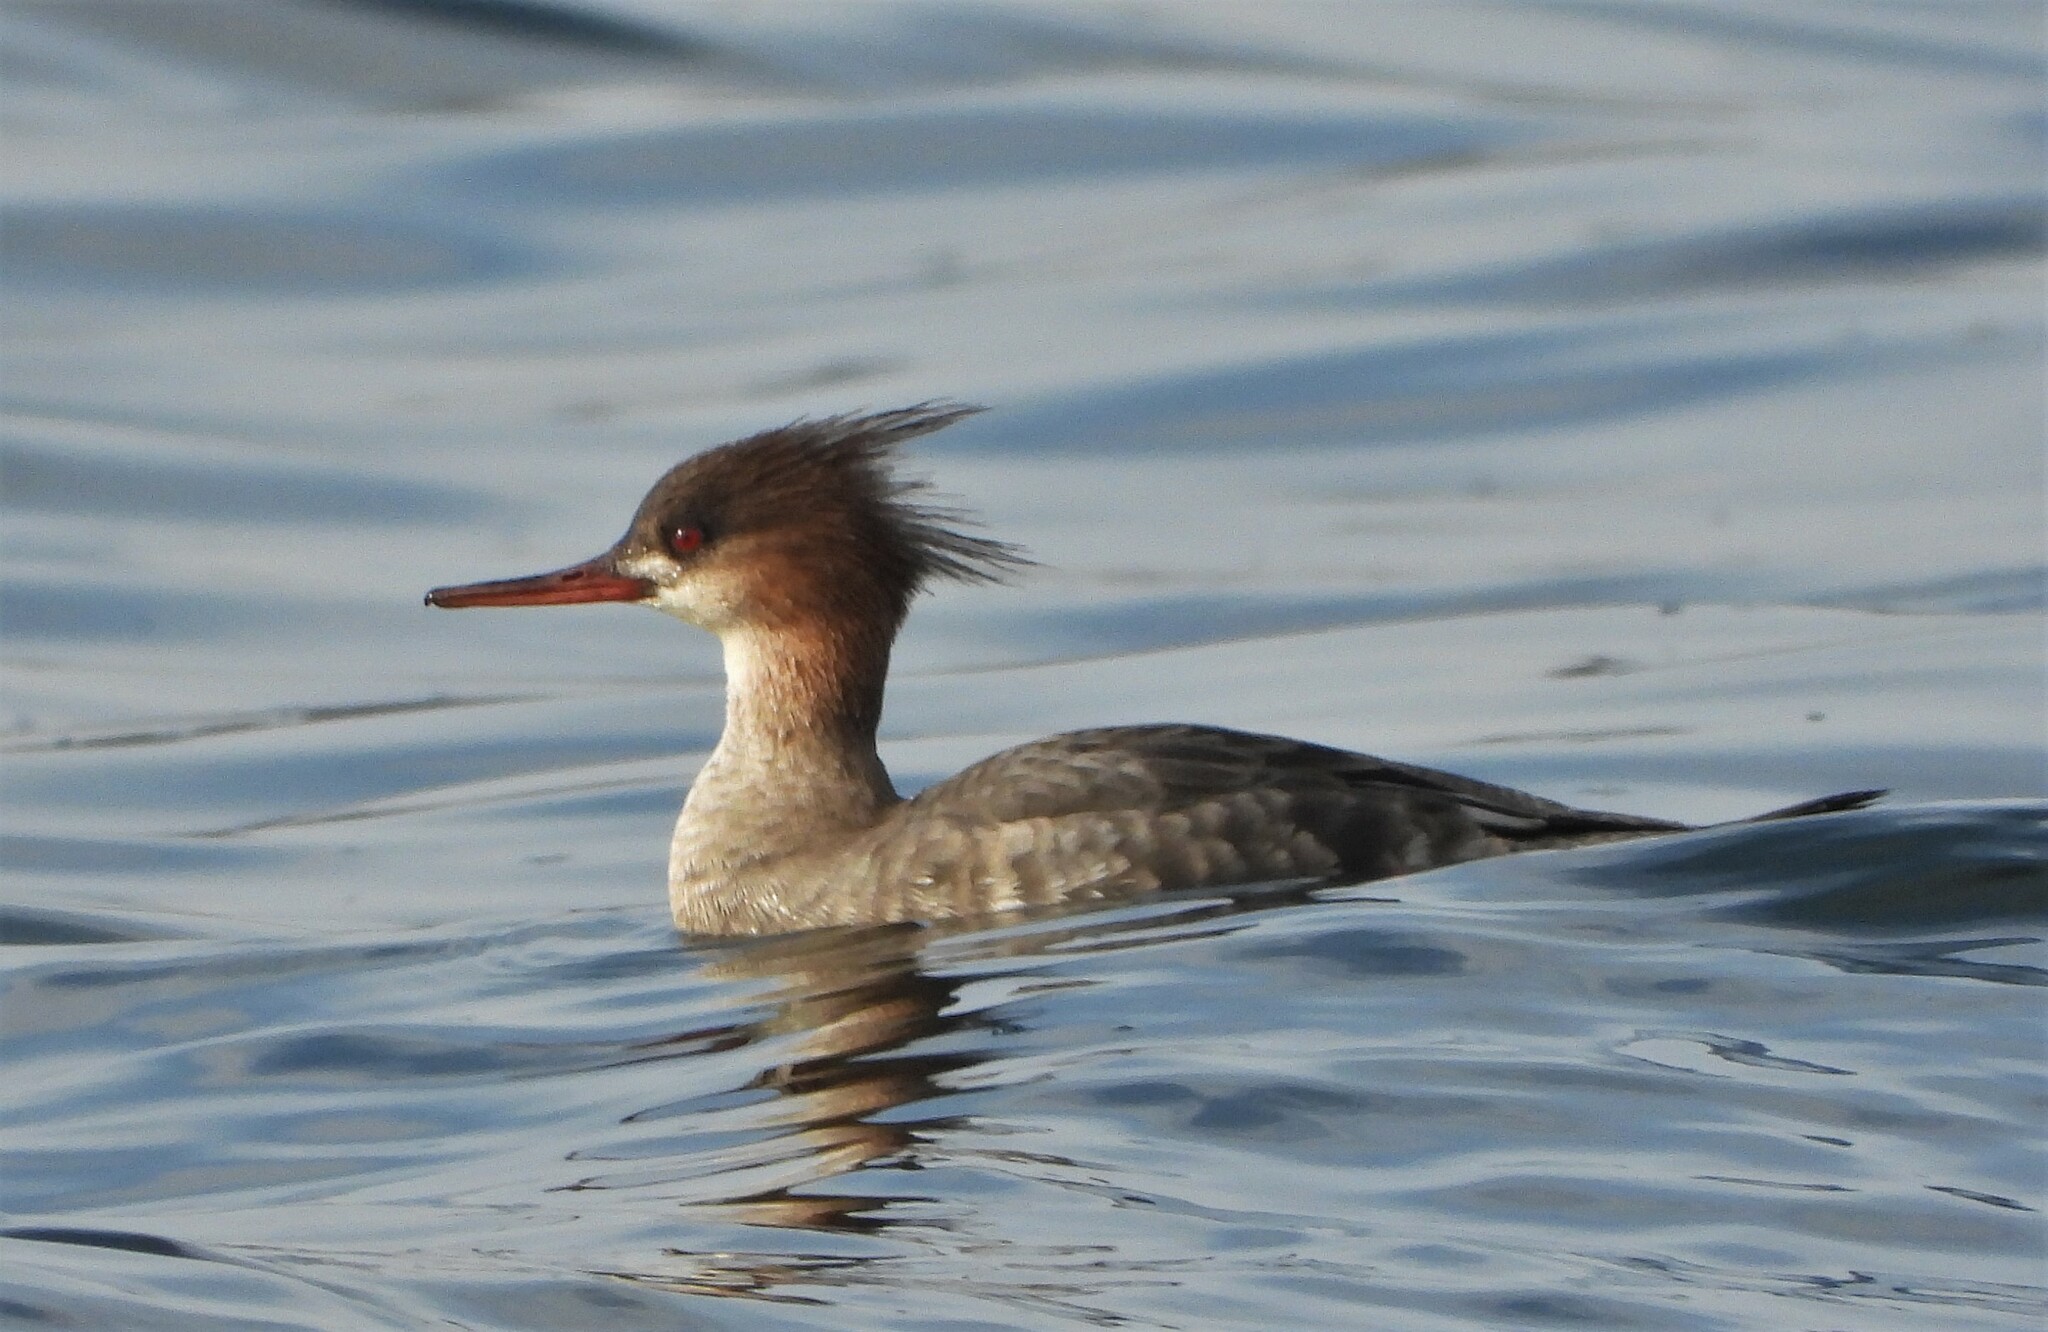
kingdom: Animalia
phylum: Chordata
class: Aves
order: Anseriformes
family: Anatidae
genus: Mergus
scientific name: Mergus serrator
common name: Red-breasted merganser
